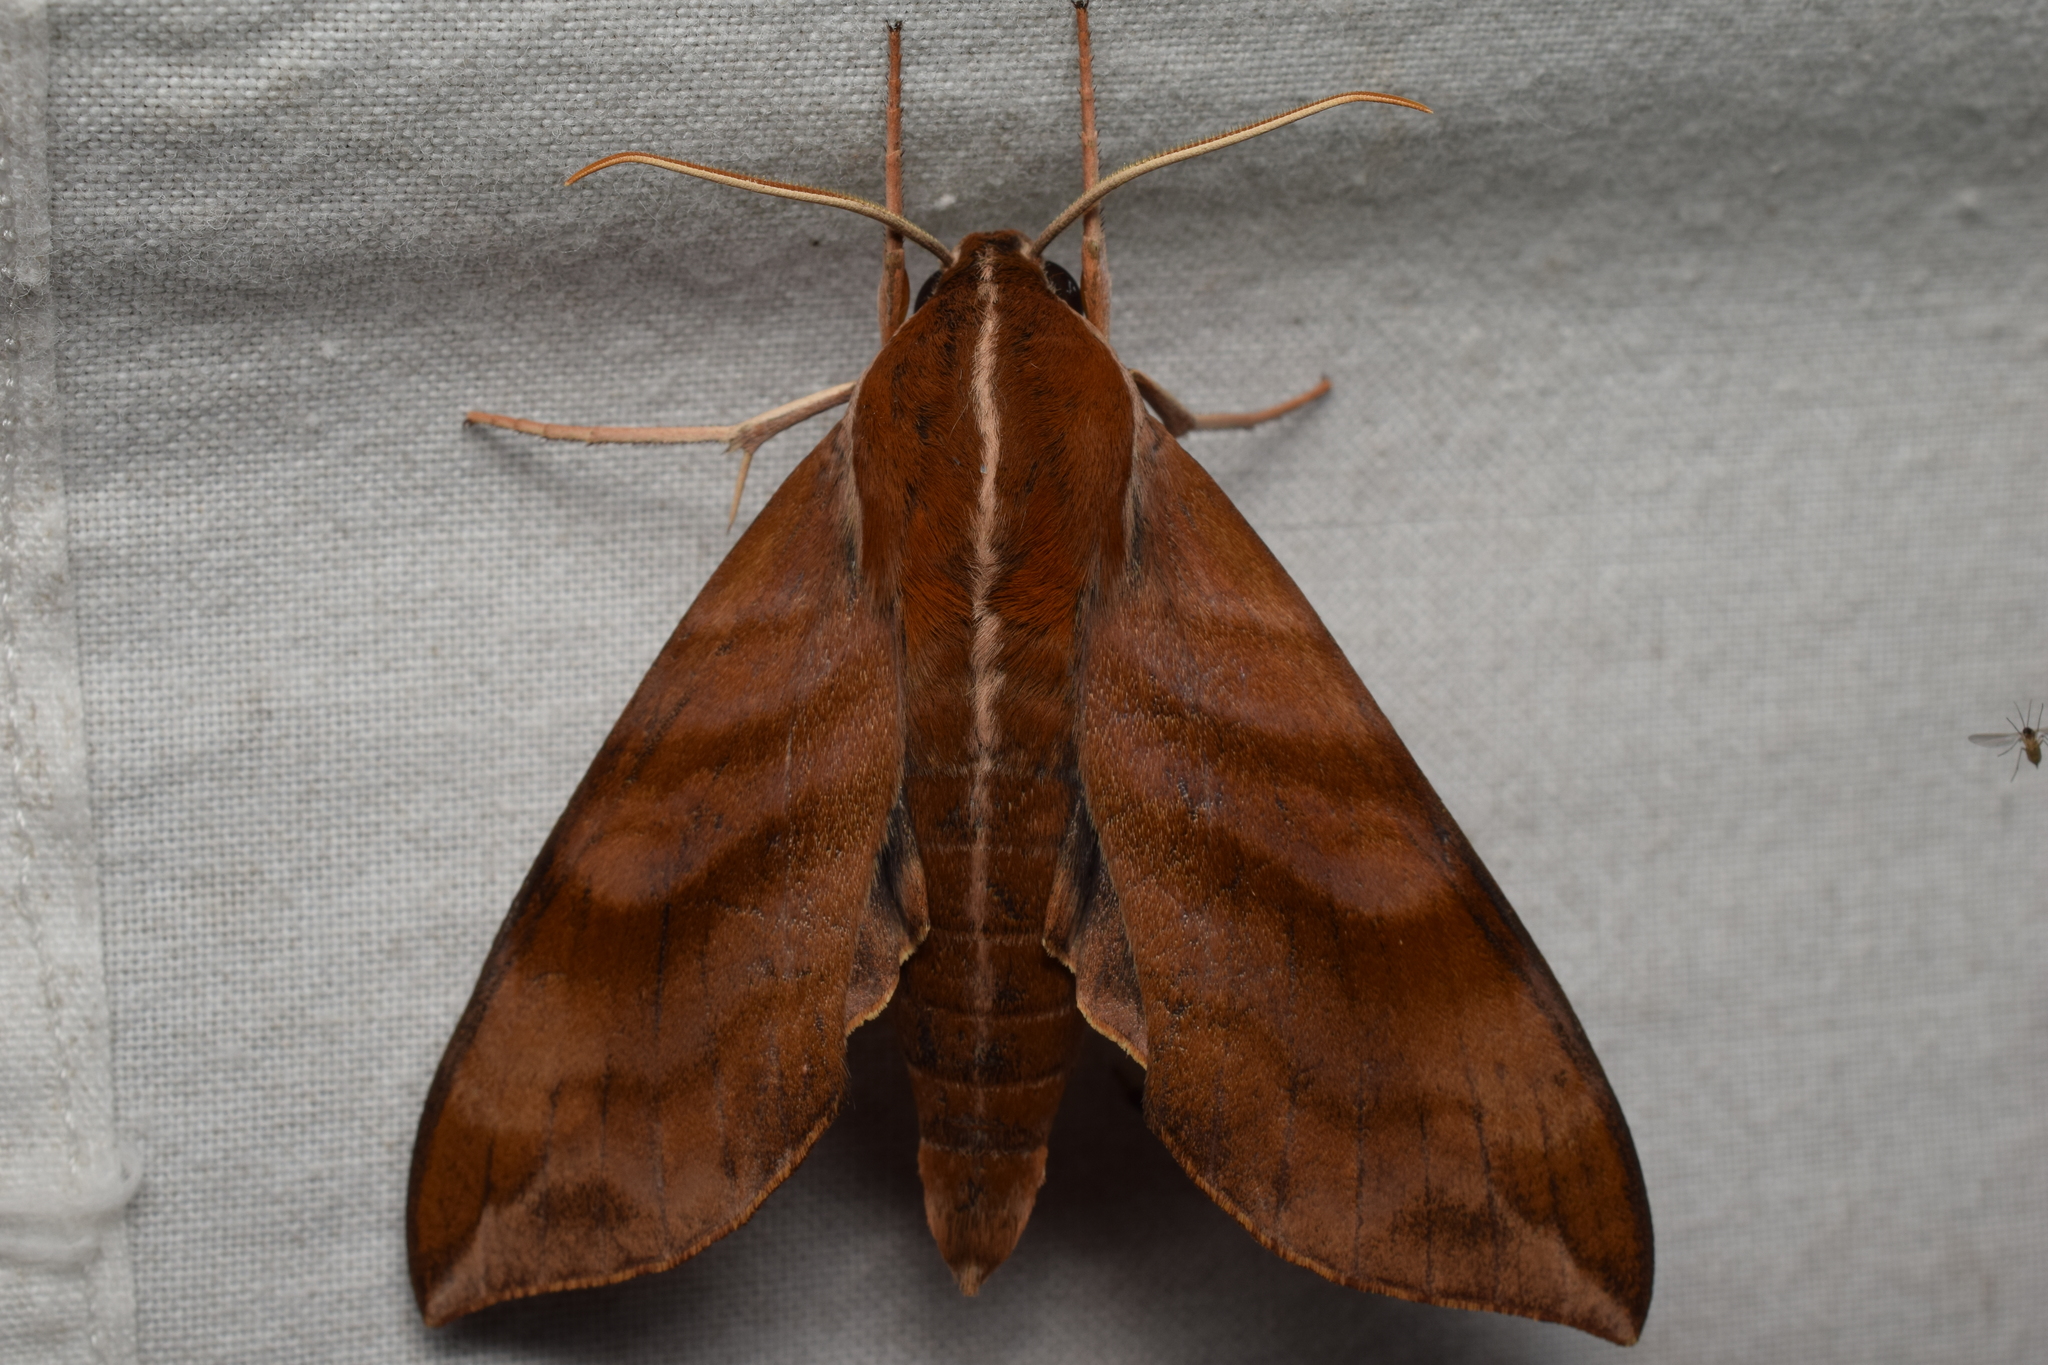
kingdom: Animalia
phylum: Arthropoda
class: Insecta
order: Lepidoptera
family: Sphingidae
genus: Ampelophaga
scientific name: Ampelophaga rubiginosa
